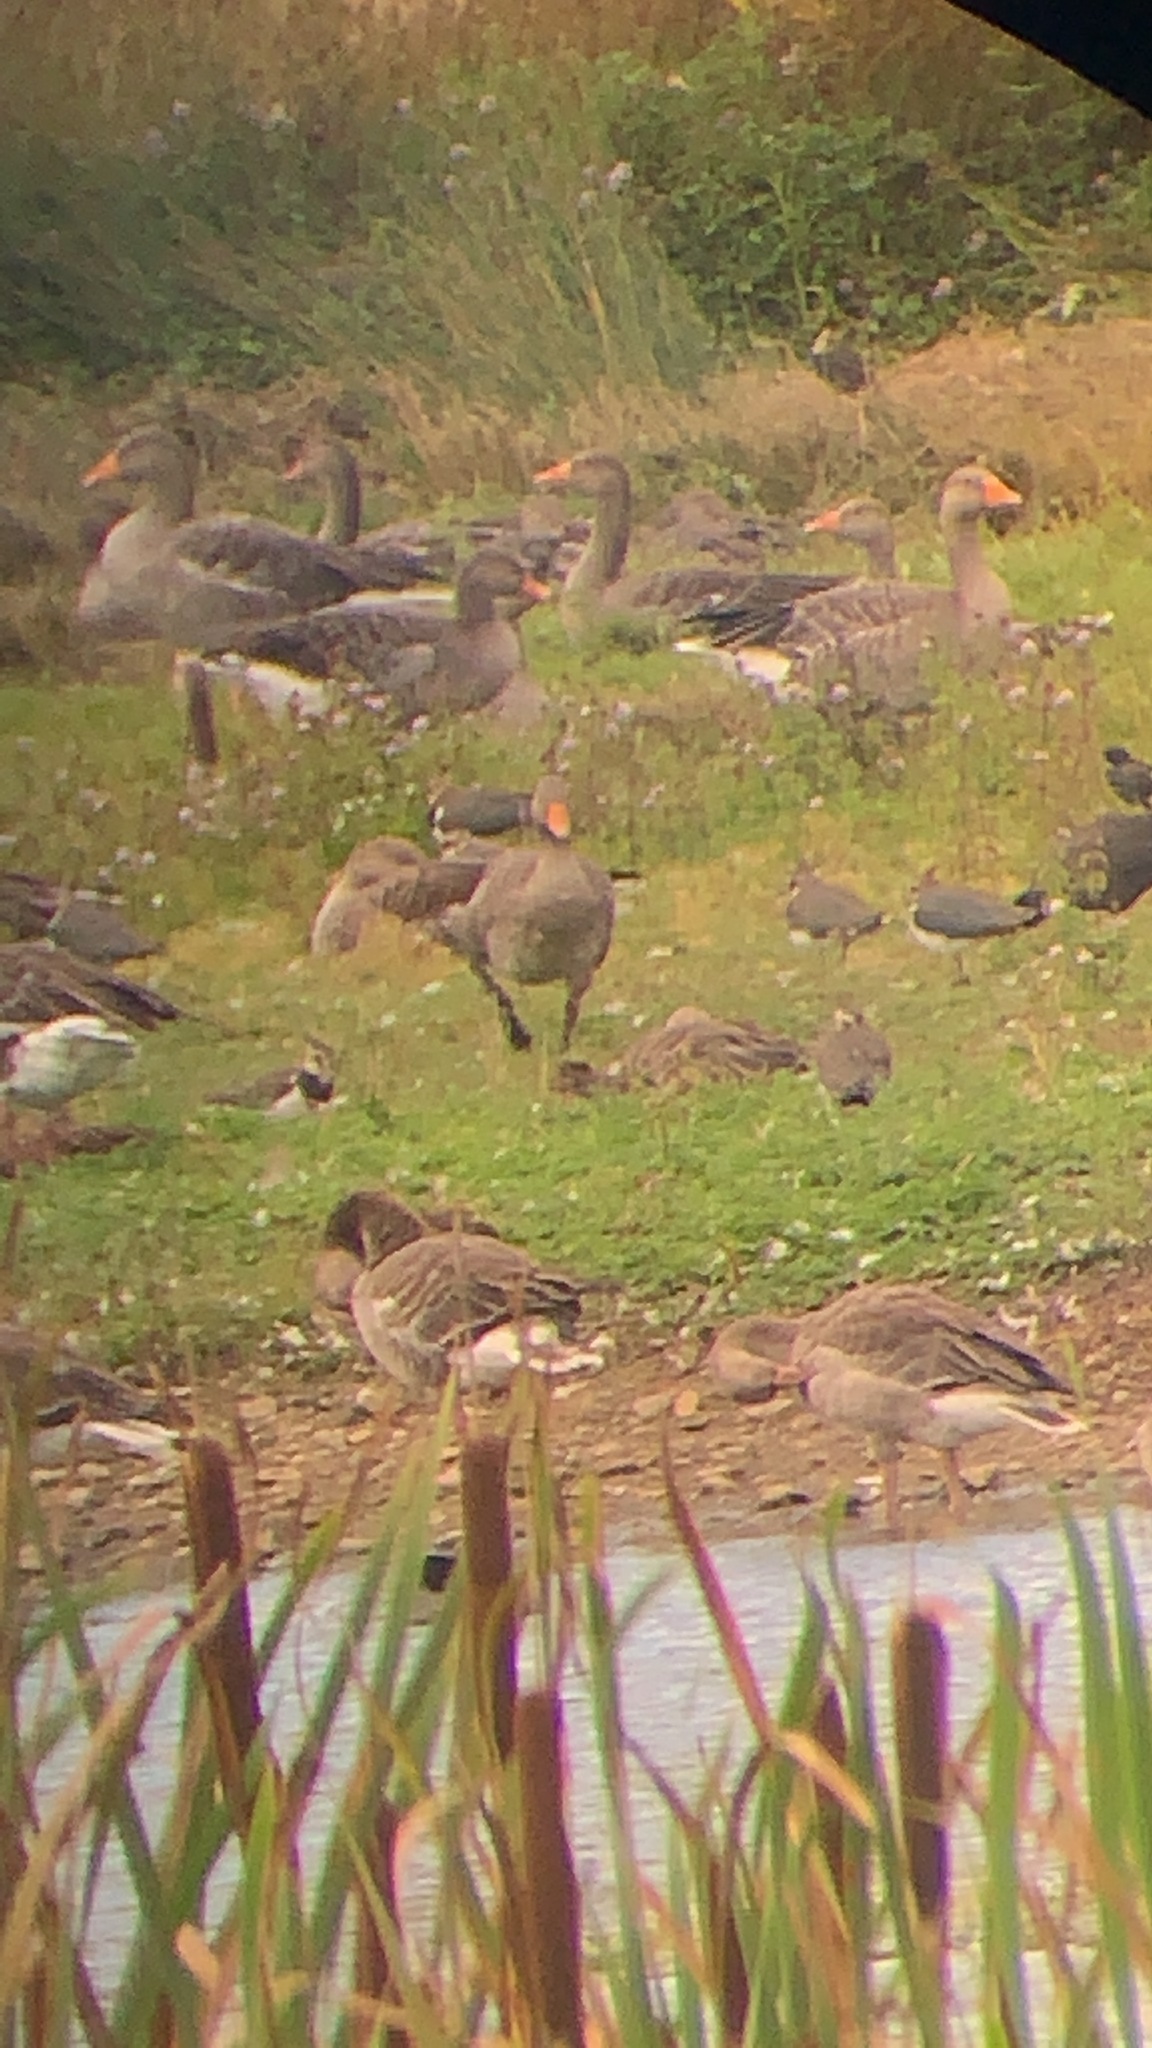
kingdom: Animalia
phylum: Chordata
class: Aves
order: Anseriformes
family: Anatidae
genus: Anser
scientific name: Anser anser
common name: Greylag goose
